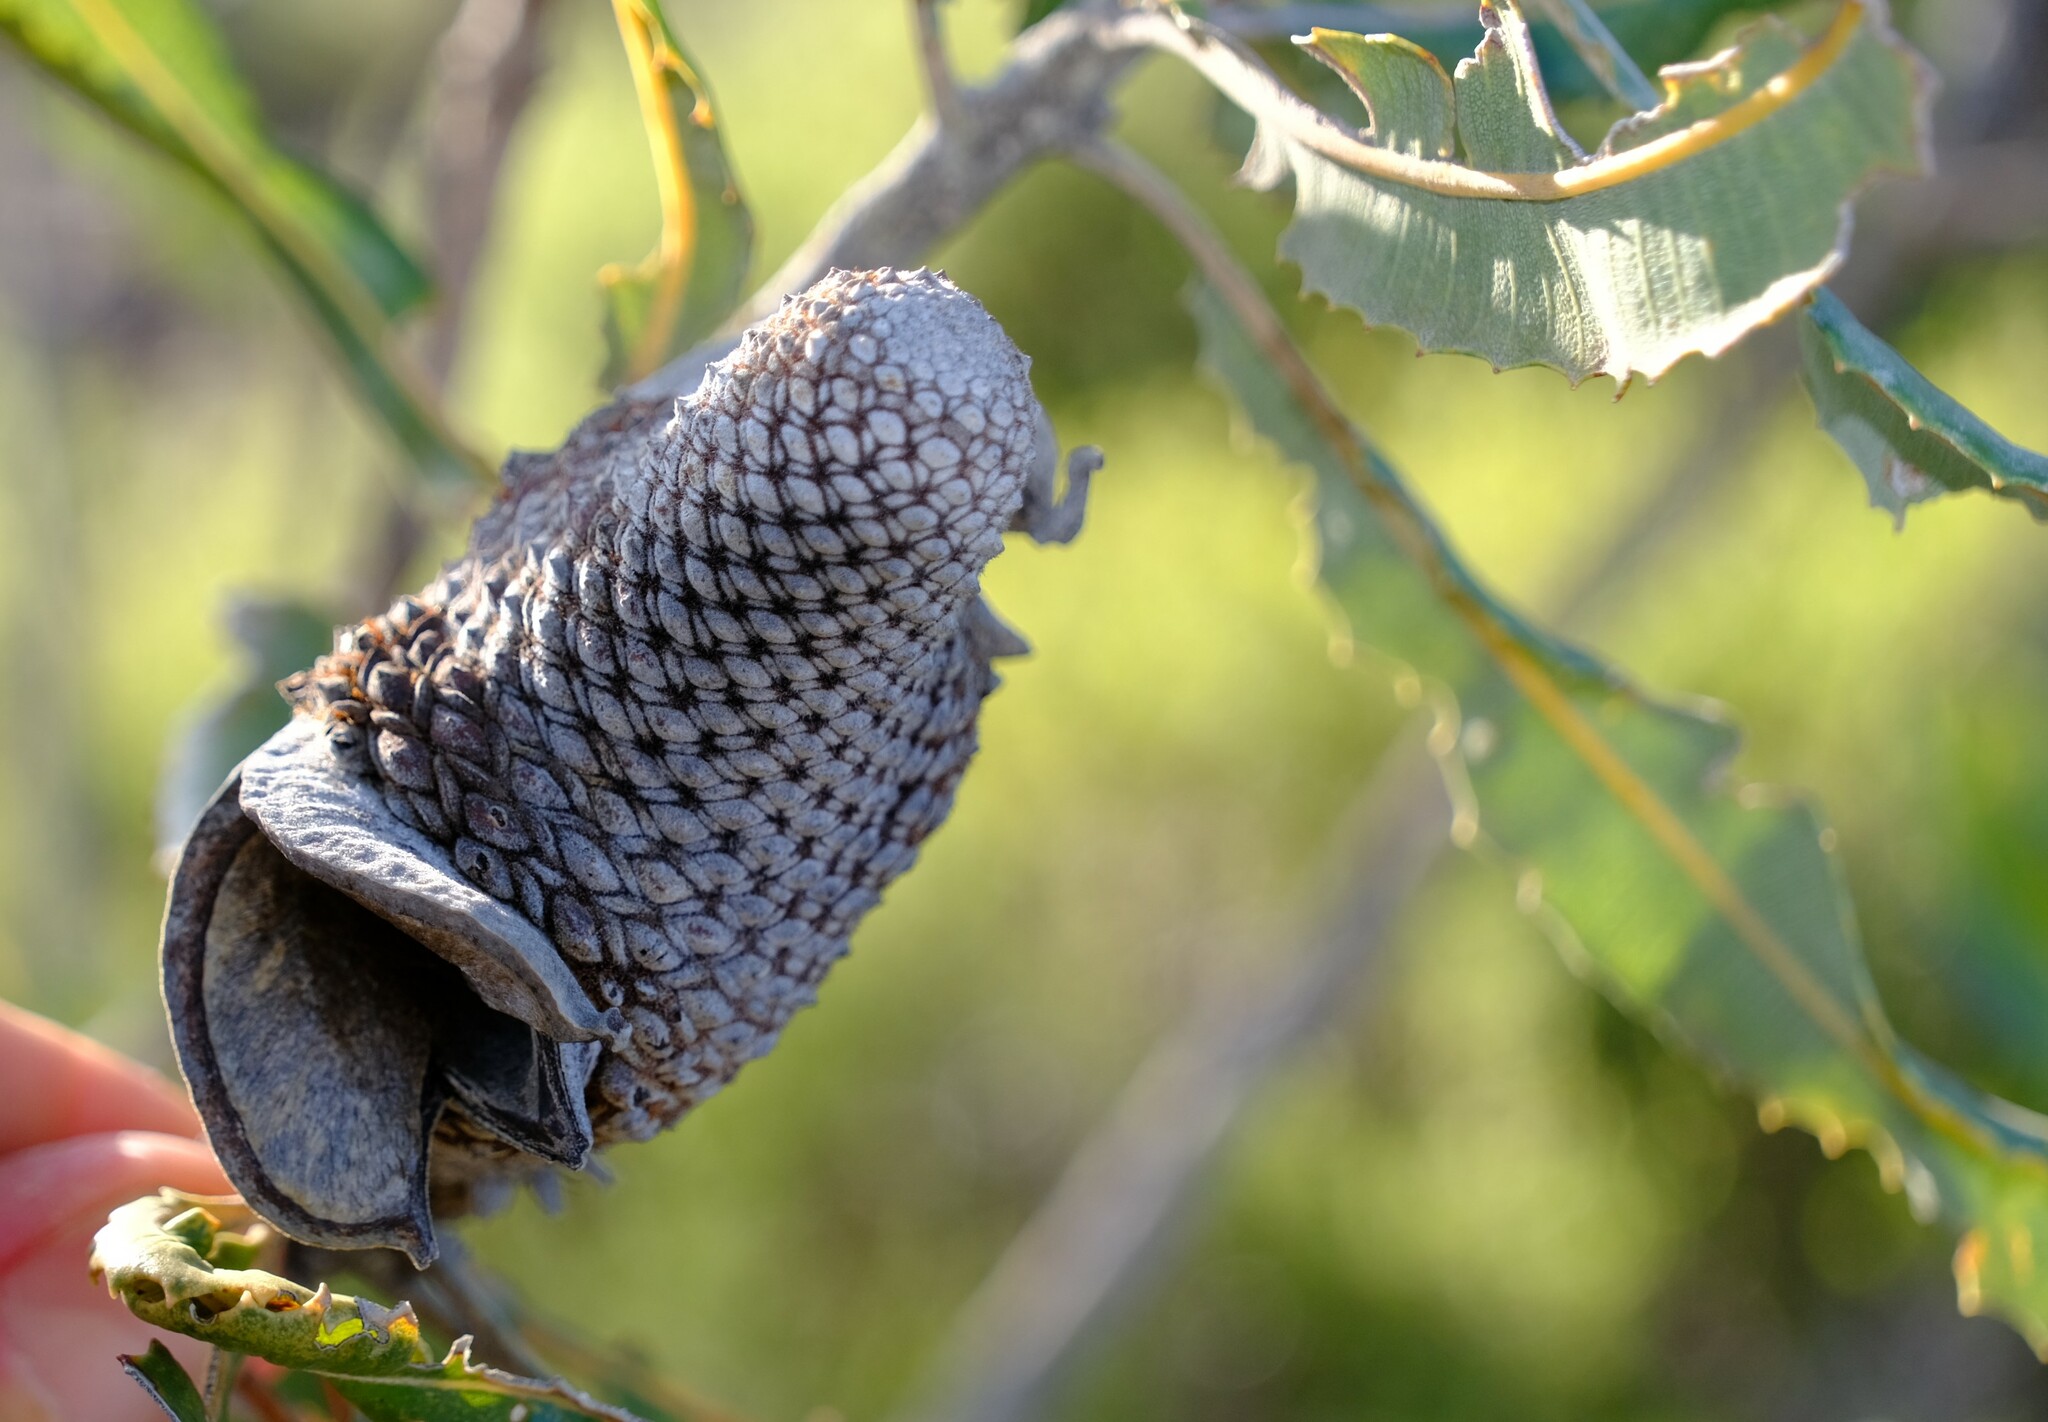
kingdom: Plantae
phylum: Tracheophyta
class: Magnoliopsida
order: Proteales
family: Proteaceae
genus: Banksia
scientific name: Banksia menziesii
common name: Menzie's banksia
